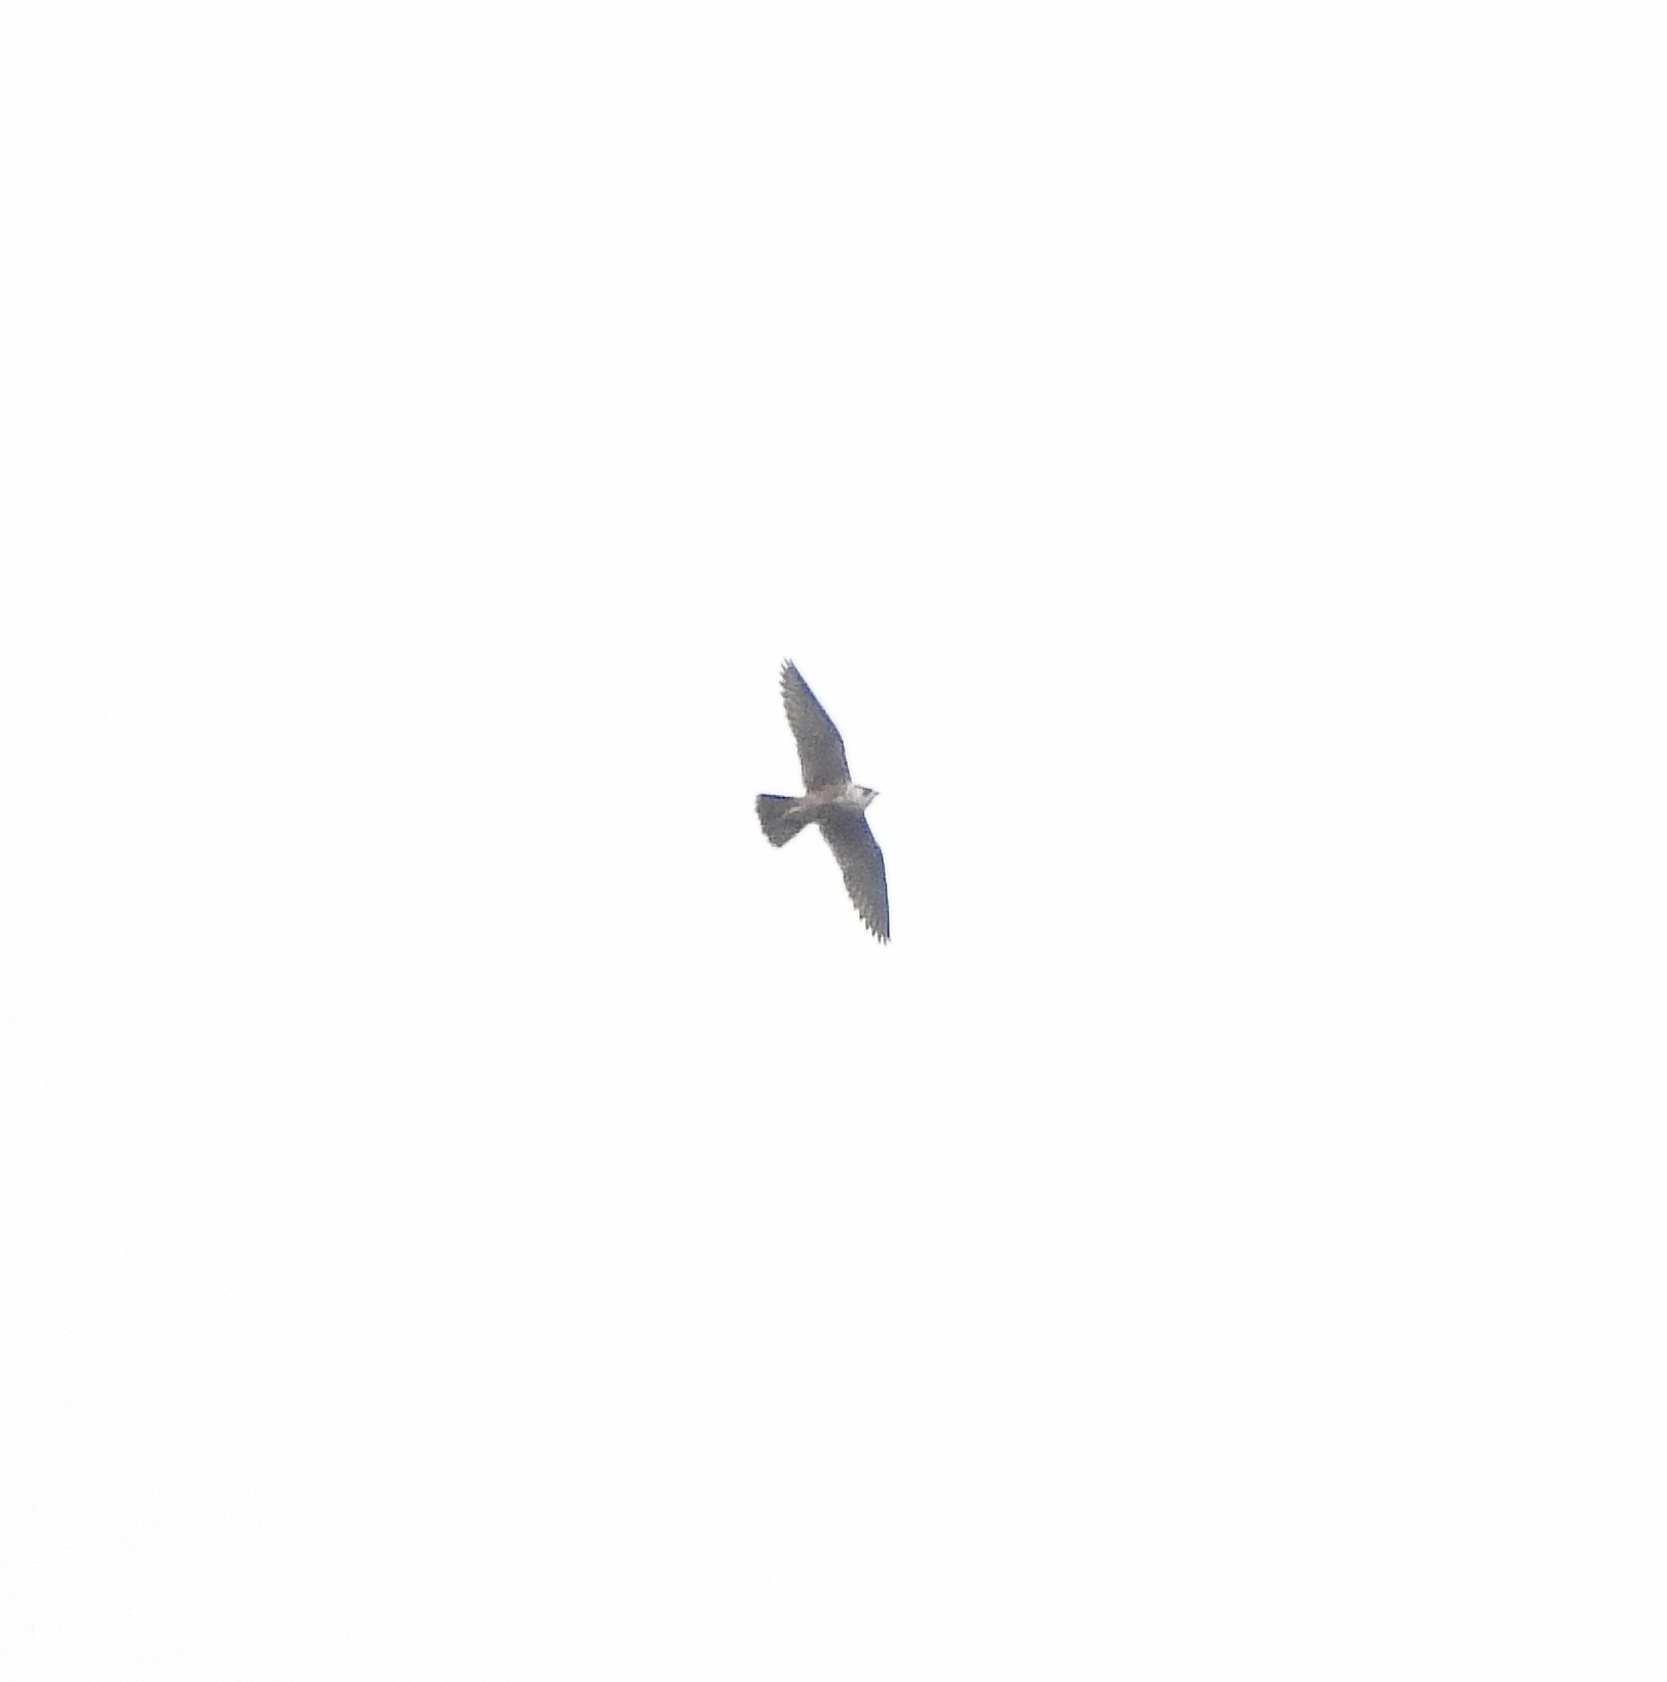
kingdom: Animalia
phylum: Chordata
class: Aves
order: Falconiformes
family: Falconidae
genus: Falco
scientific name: Falco peregrinus
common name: Peregrine falcon
